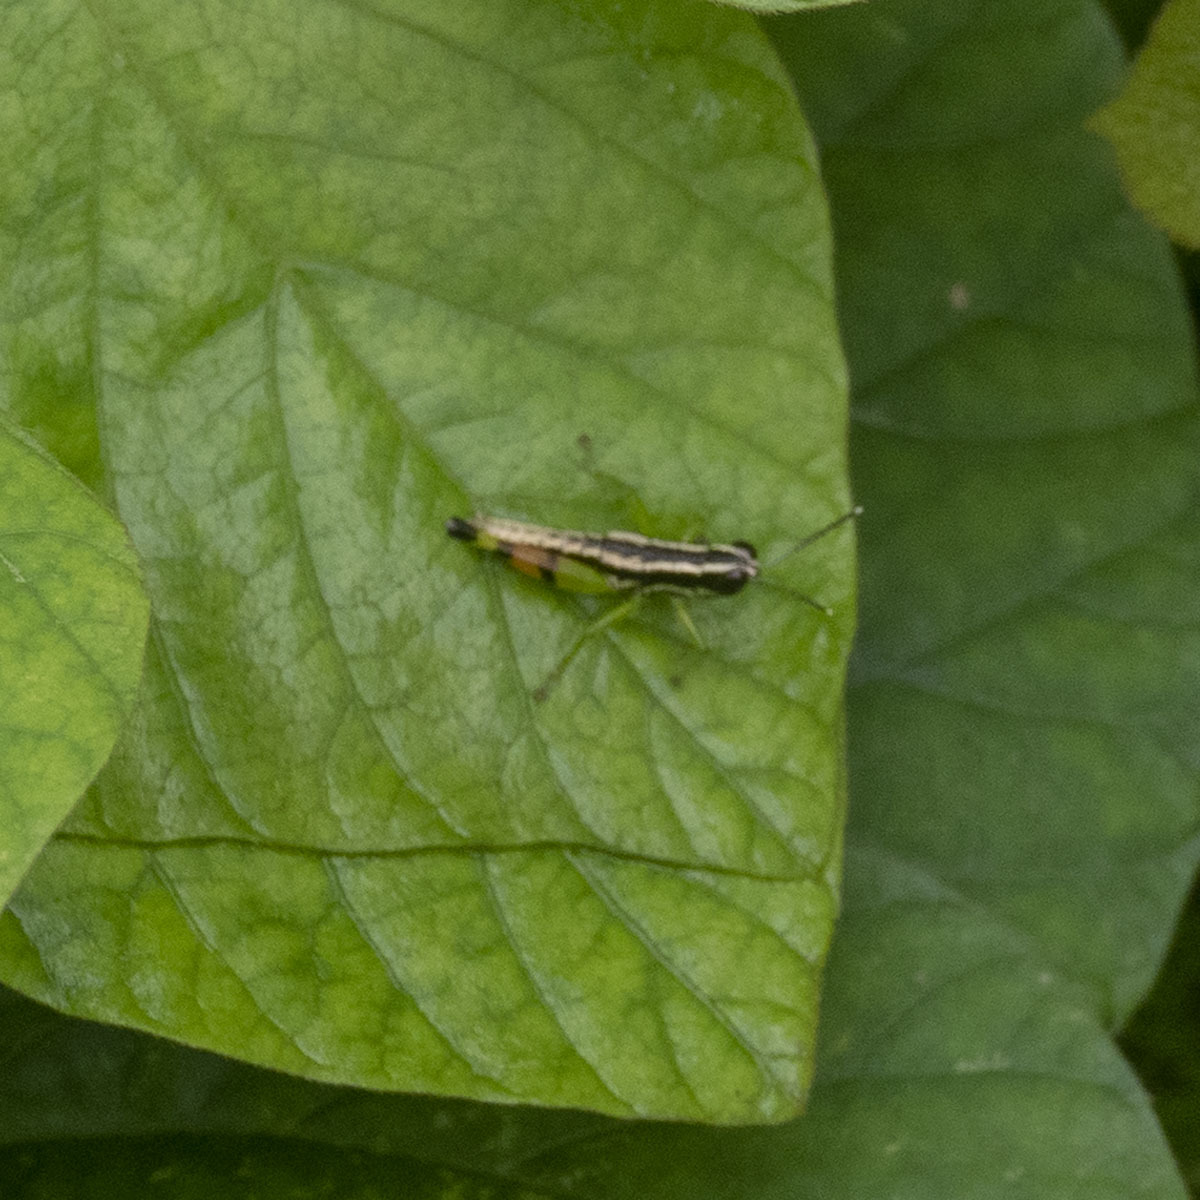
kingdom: Animalia
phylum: Arthropoda
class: Insecta
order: Orthoptera
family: Acrididae
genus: Chitaura
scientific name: Chitaura indica
